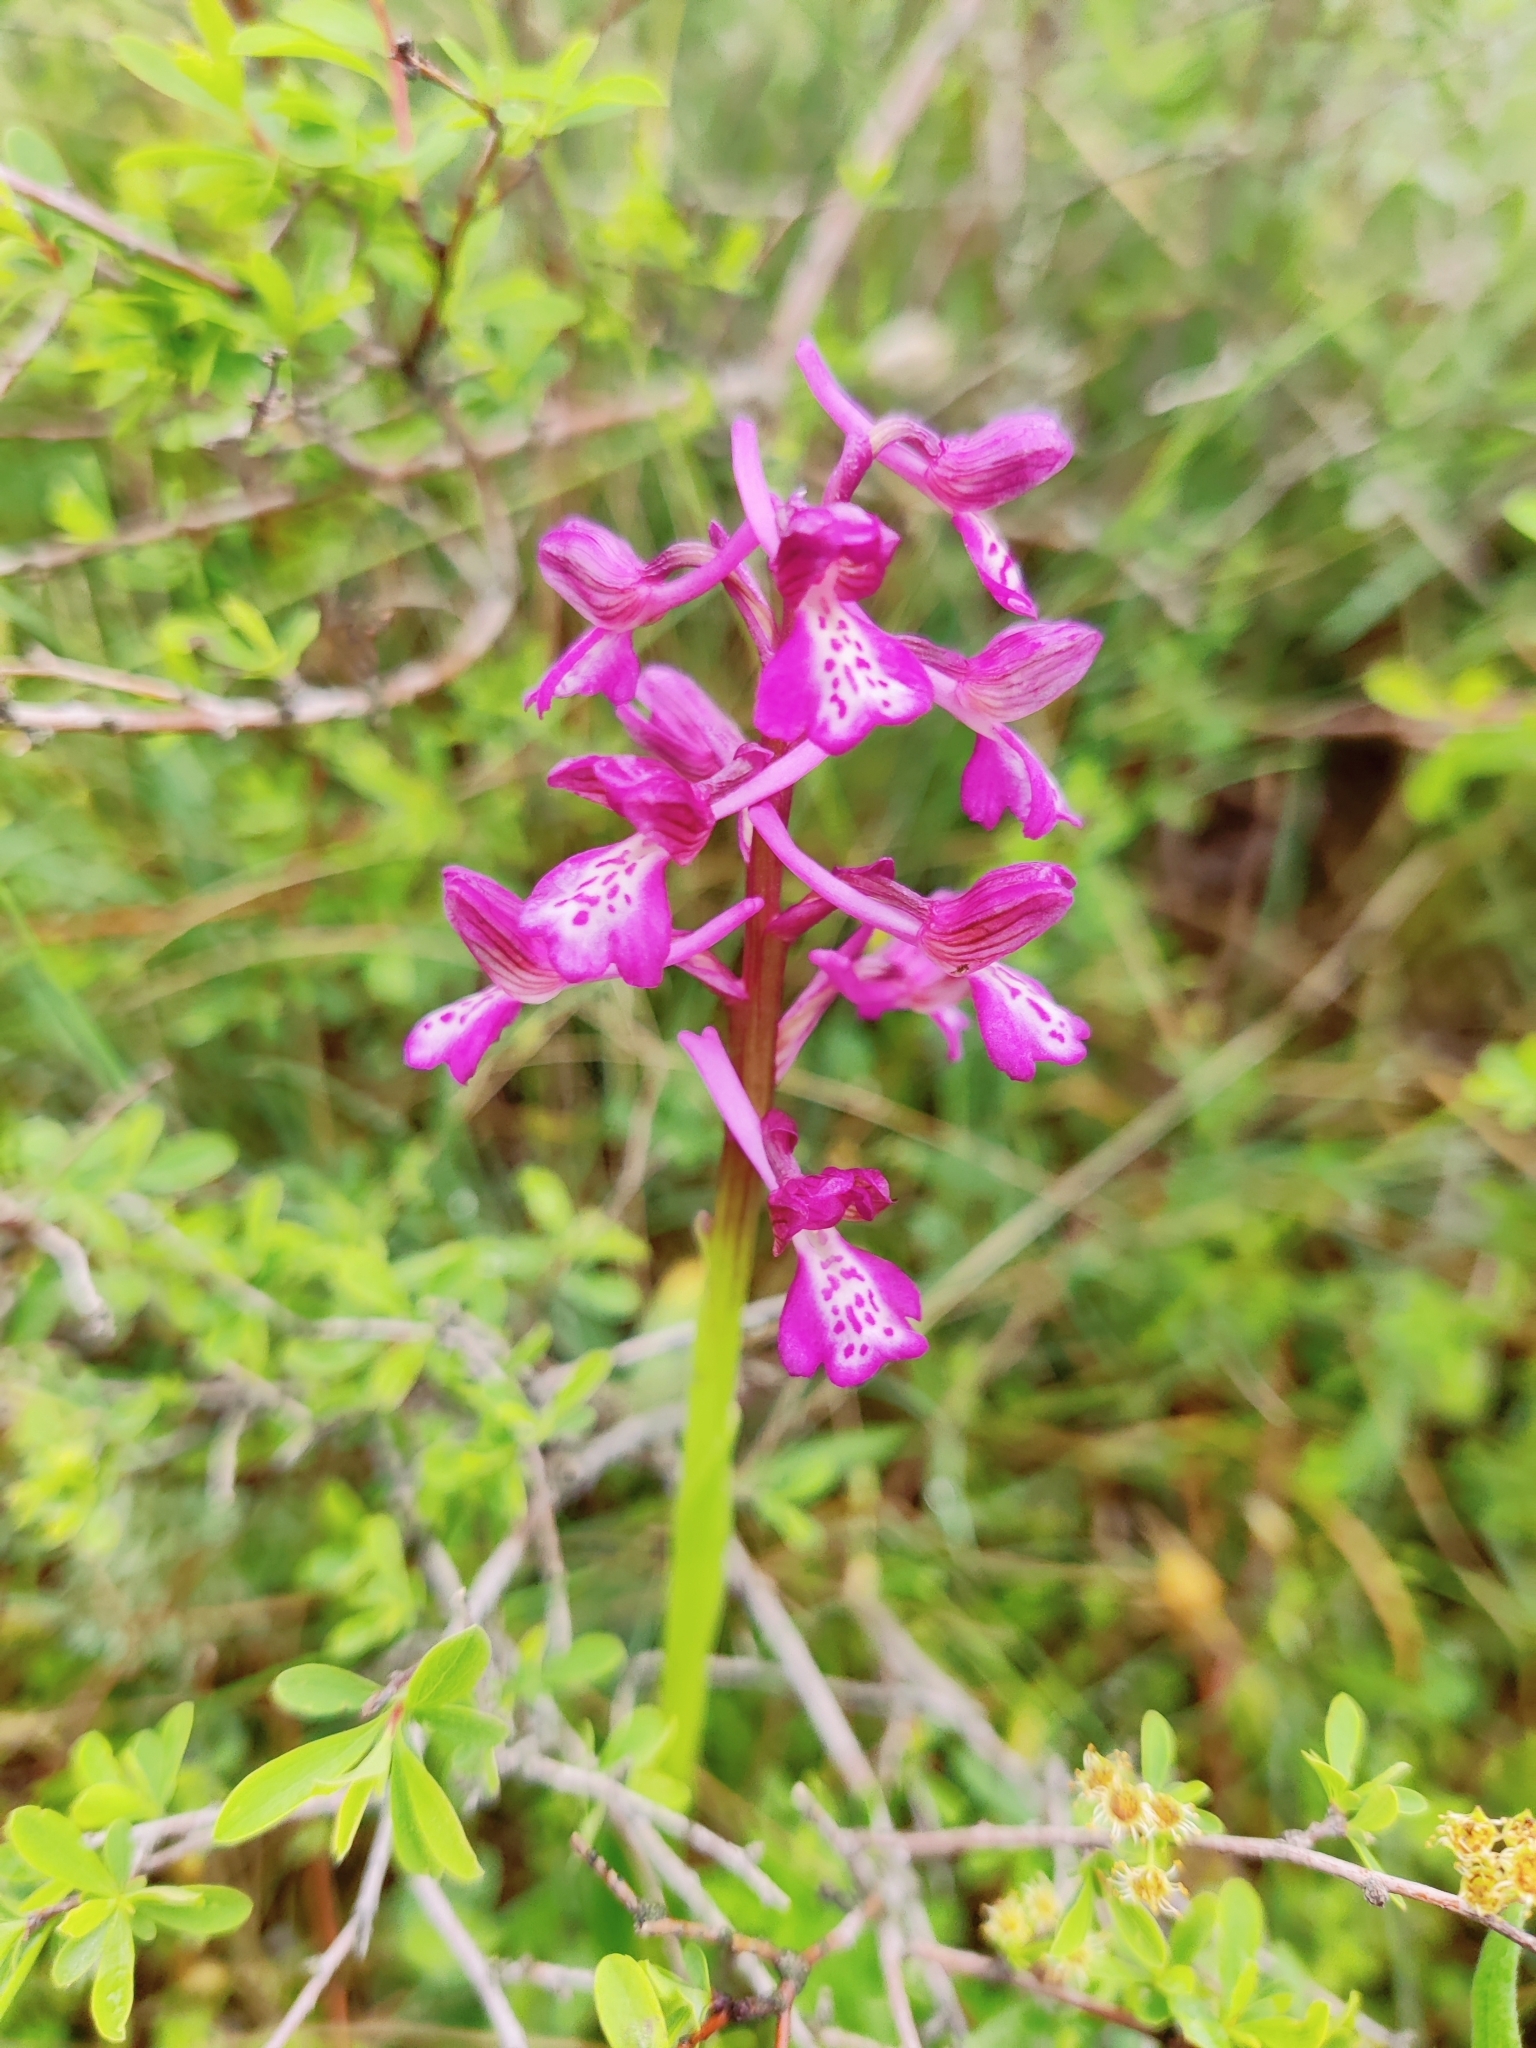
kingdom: Plantae
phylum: Tracheophyta
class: Liliopsida
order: Asparagales
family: Orchidaceae
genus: Anacamptis
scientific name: Anacamptis morio
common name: Green-winged orchid
